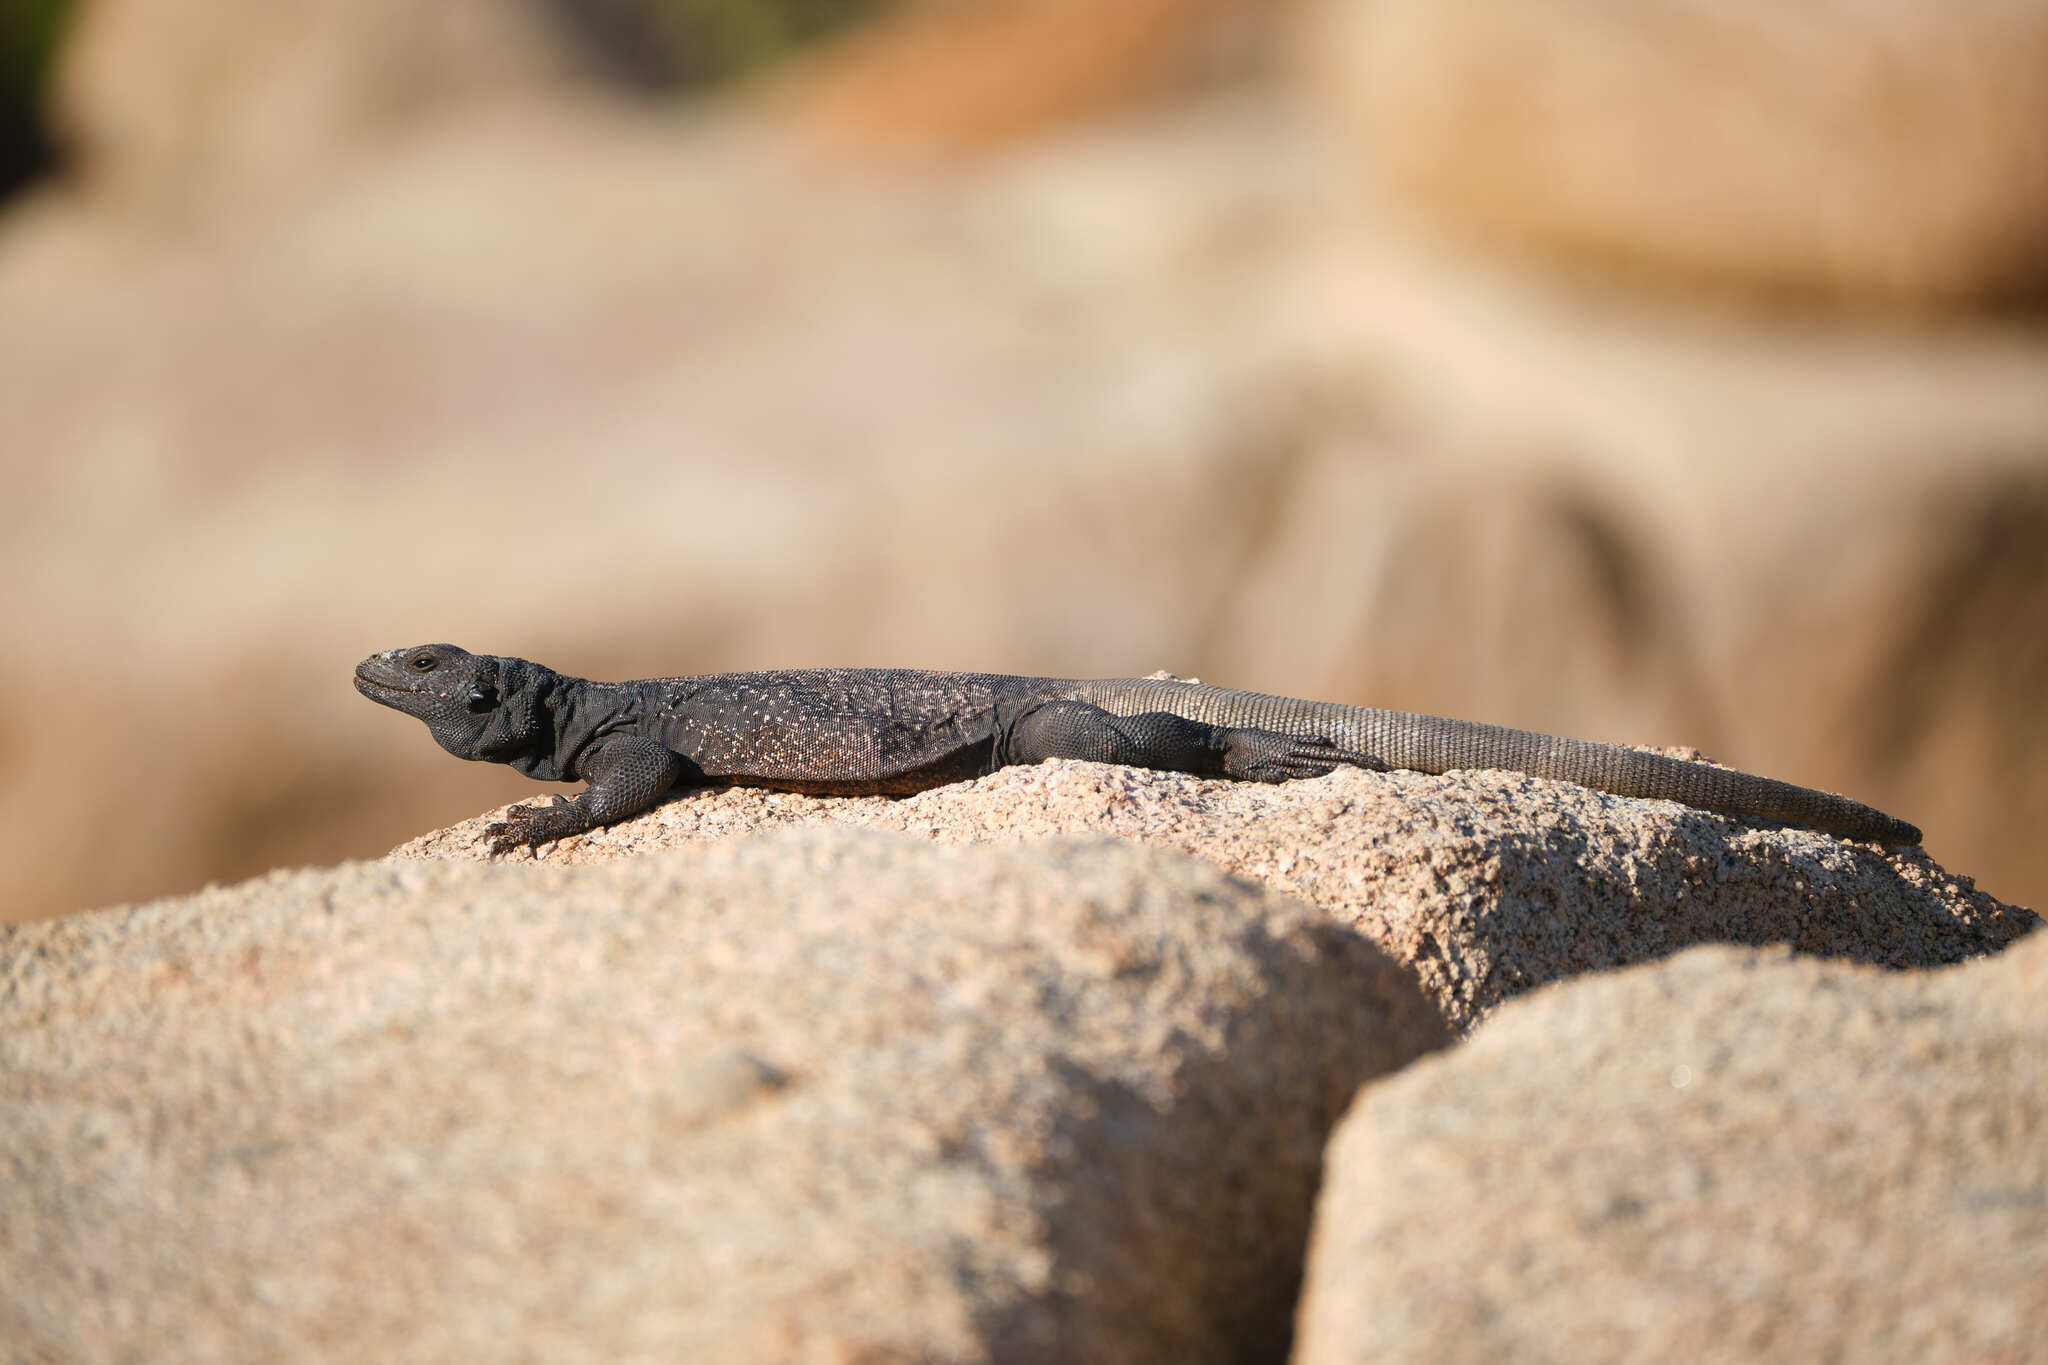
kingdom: Animalia
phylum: Chordata
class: Squamata
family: Iguanidae
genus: Sauromalus
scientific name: Sauromalus ater
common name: Northern chuckwalla
